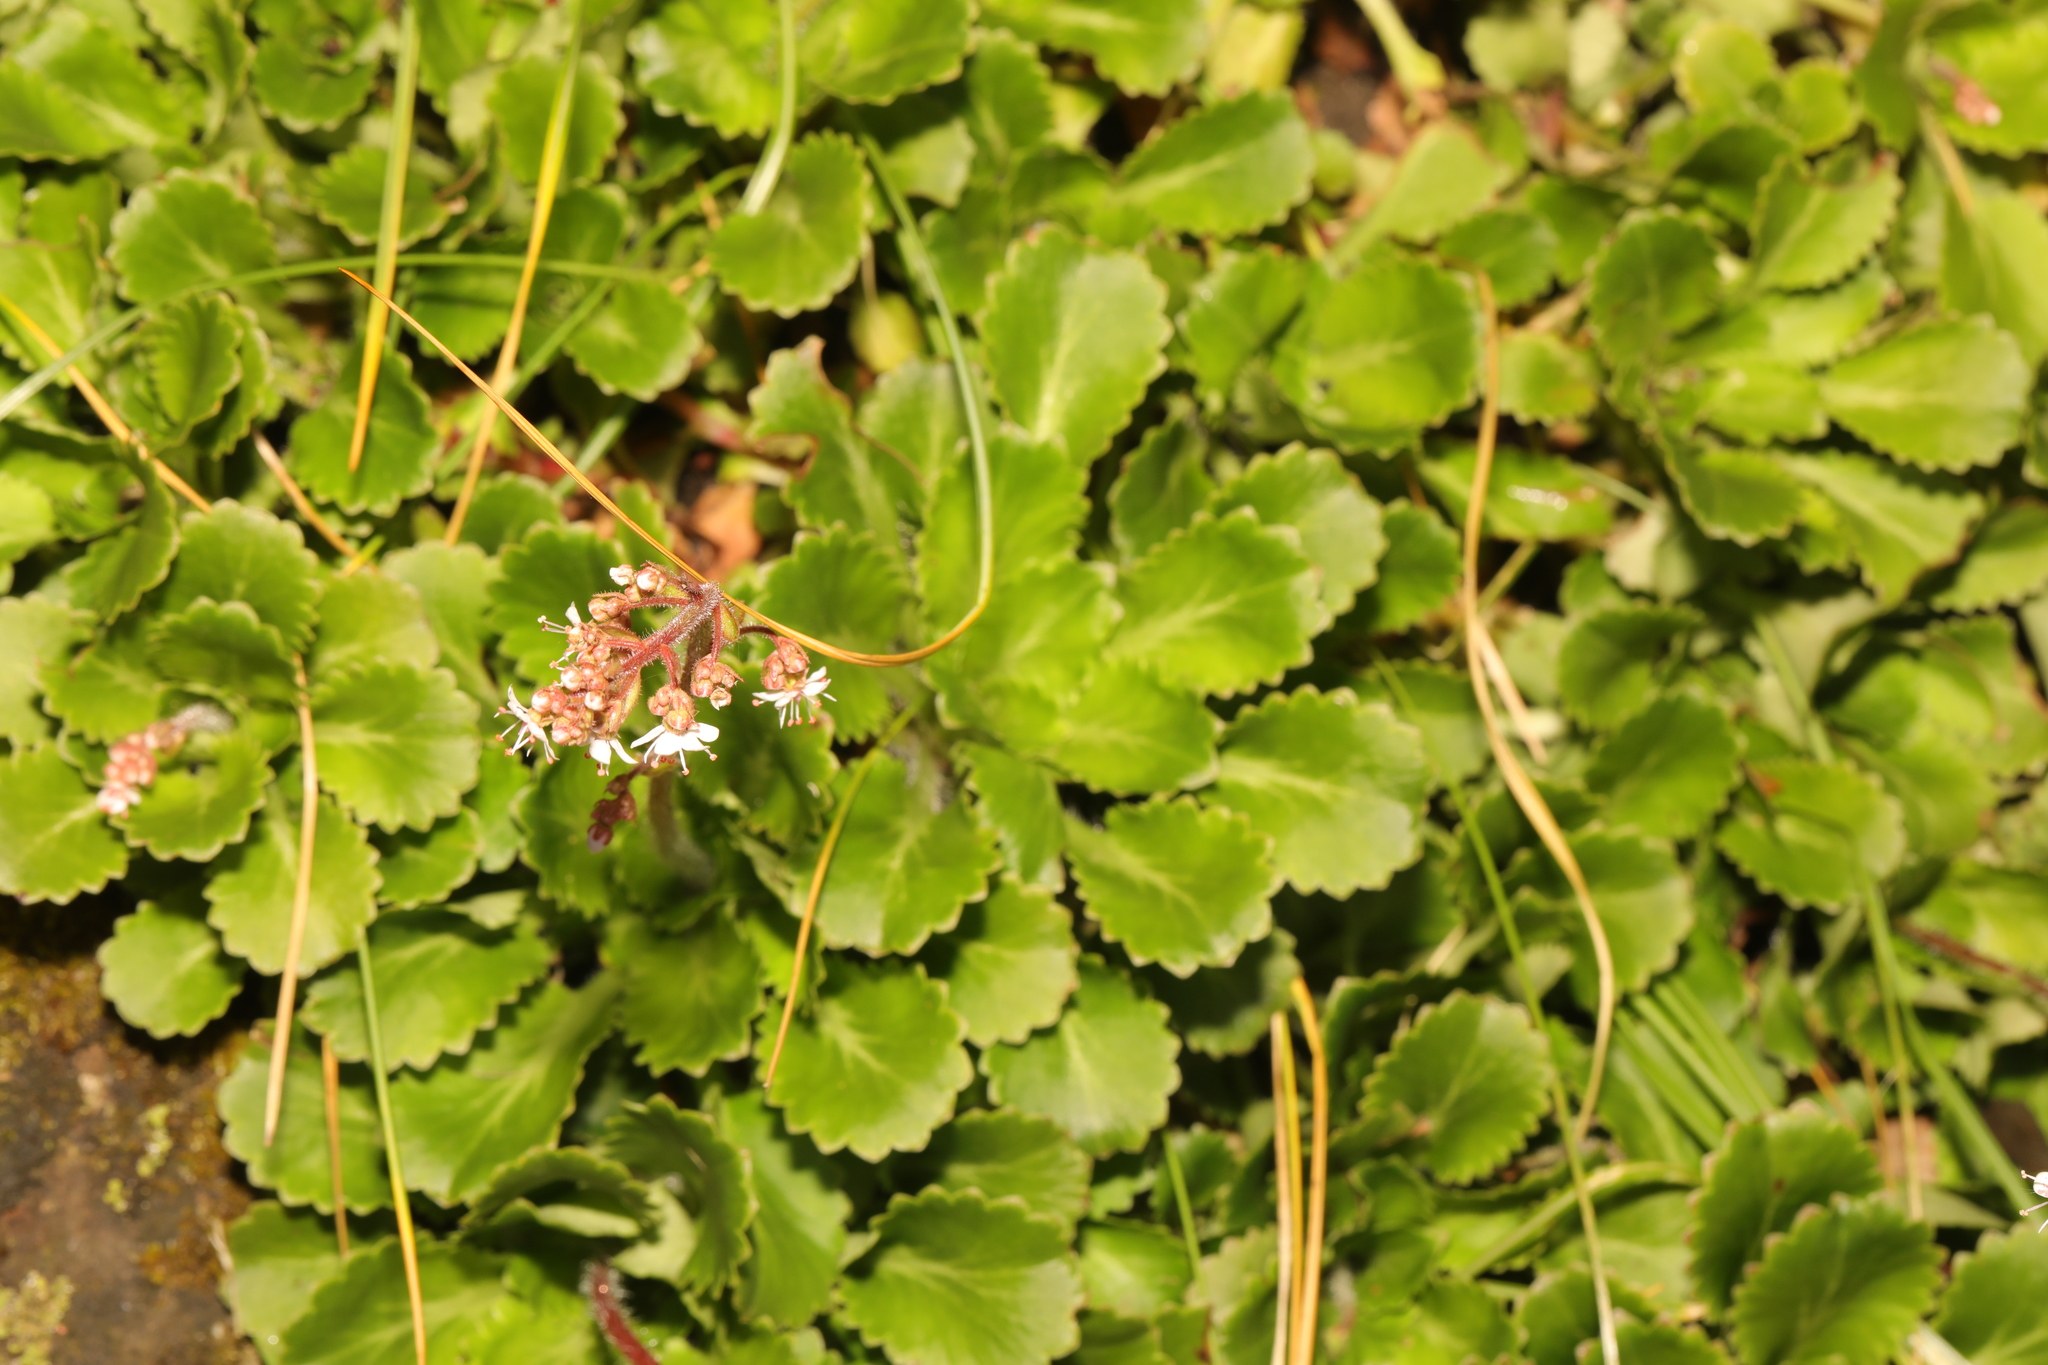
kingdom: Plantae
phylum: Tracheophyta
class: Magnoliopsida
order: Saxifragales
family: Saxifragaceae
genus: Saxifraga
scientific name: Saxifraga urbium
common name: Londonpride
